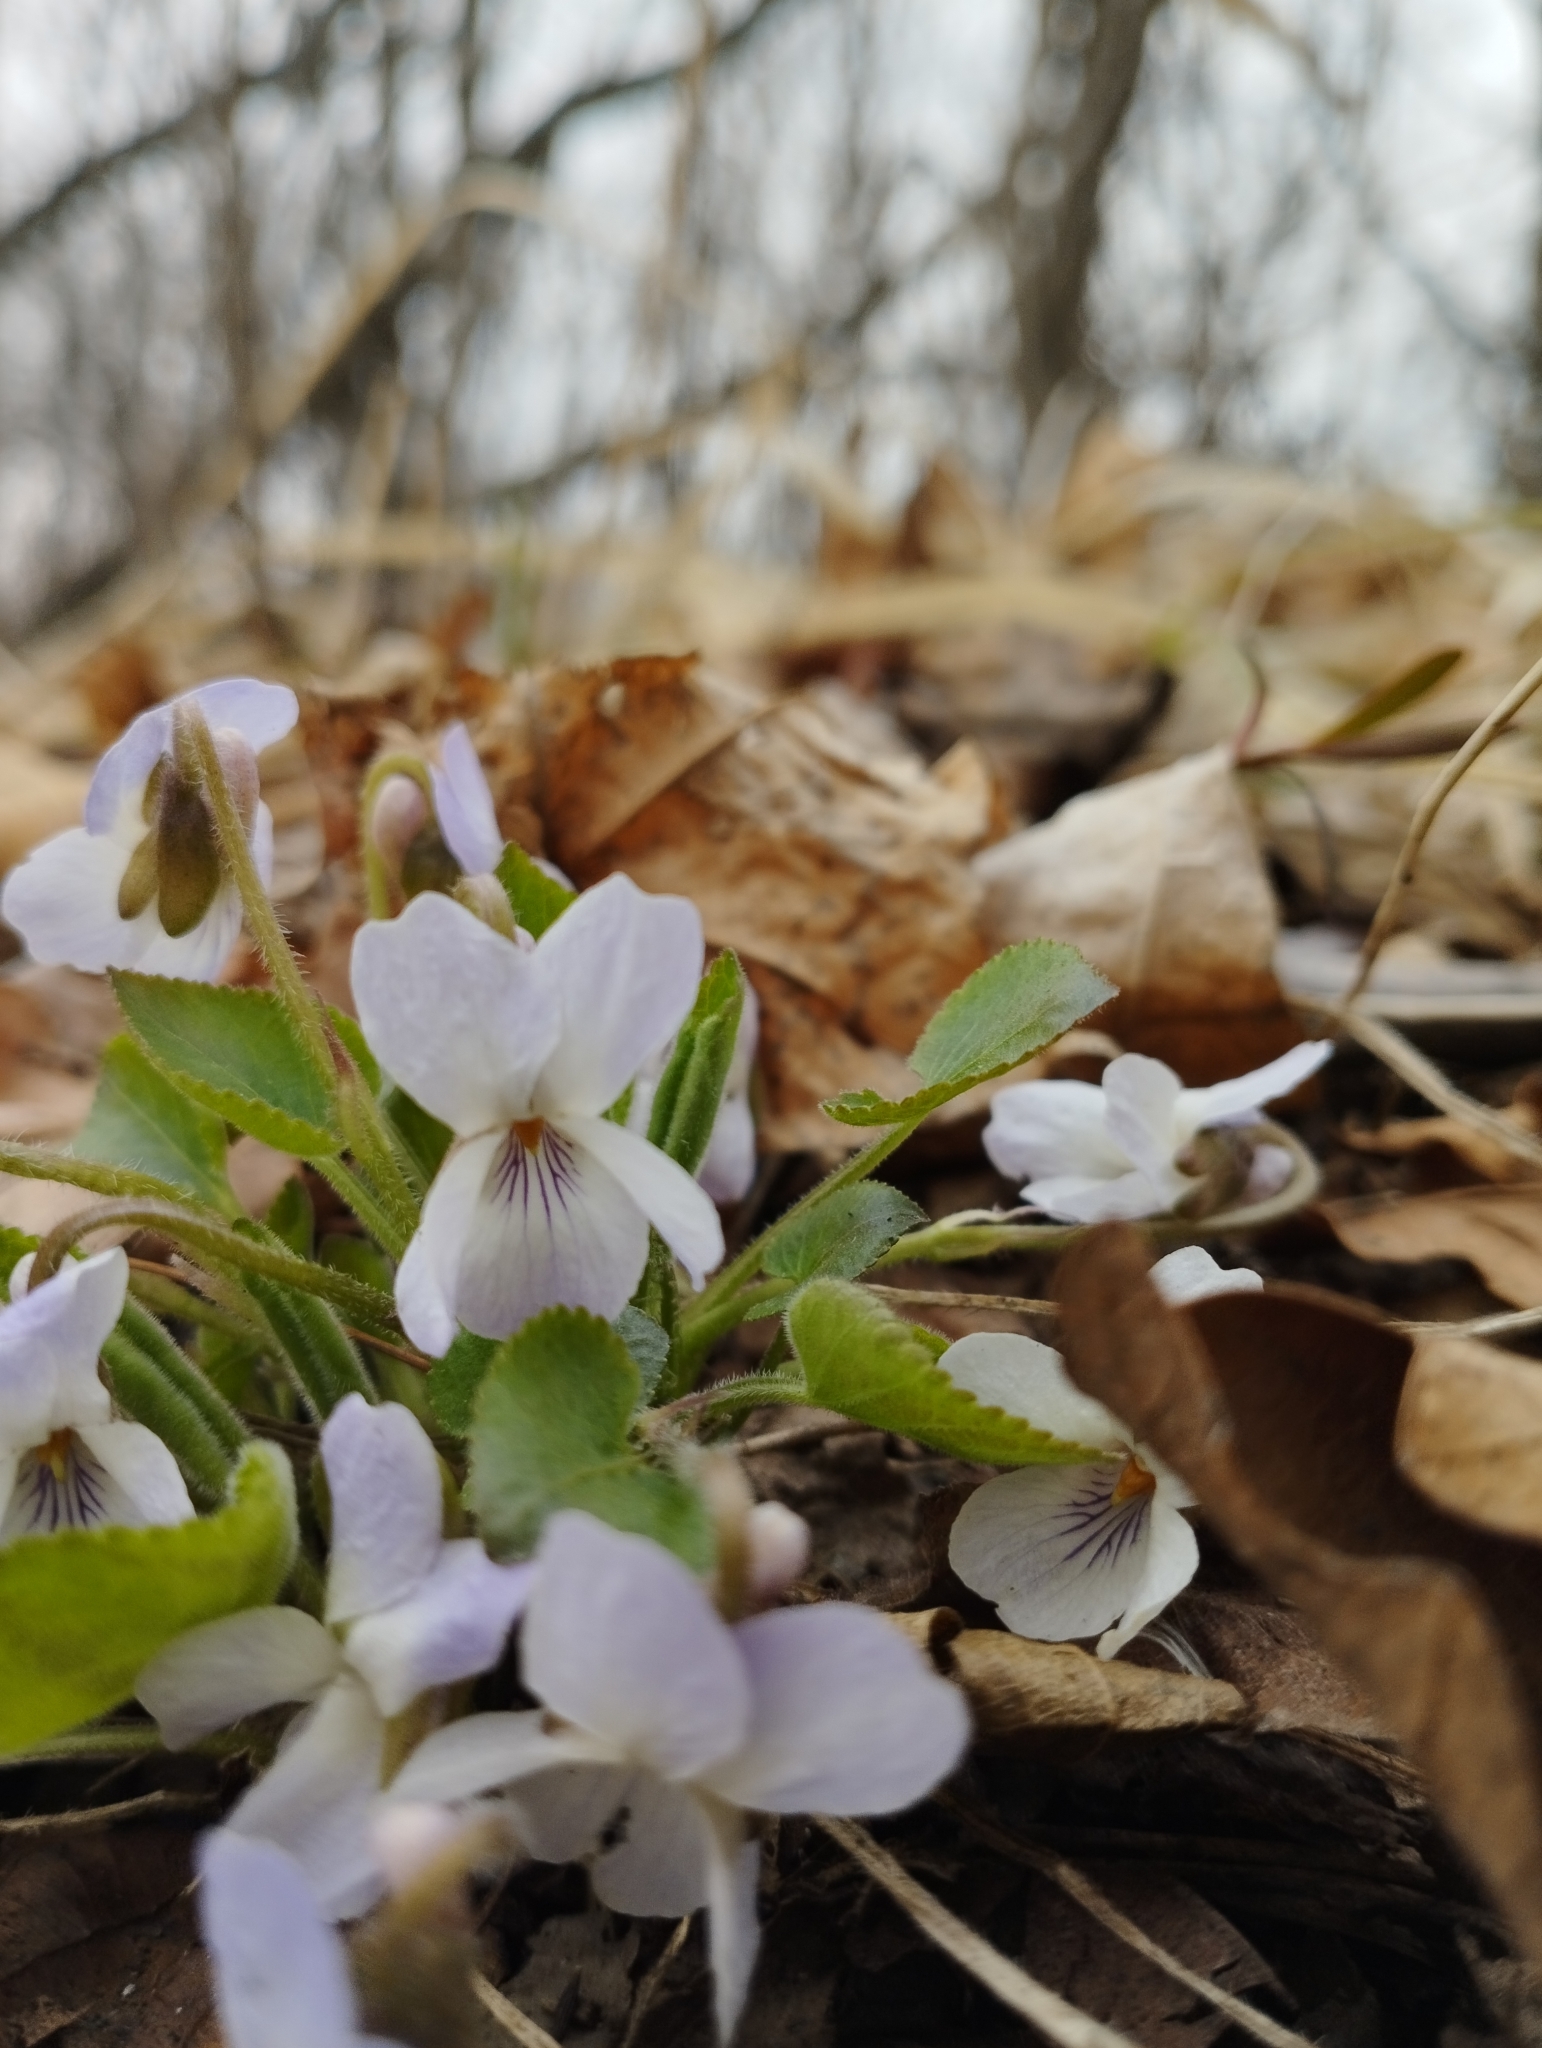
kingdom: Plantae
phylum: Tracheophyta
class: Magnoliopsida
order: Malpighiales
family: Violaceae
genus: Viola
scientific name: Viola collina
